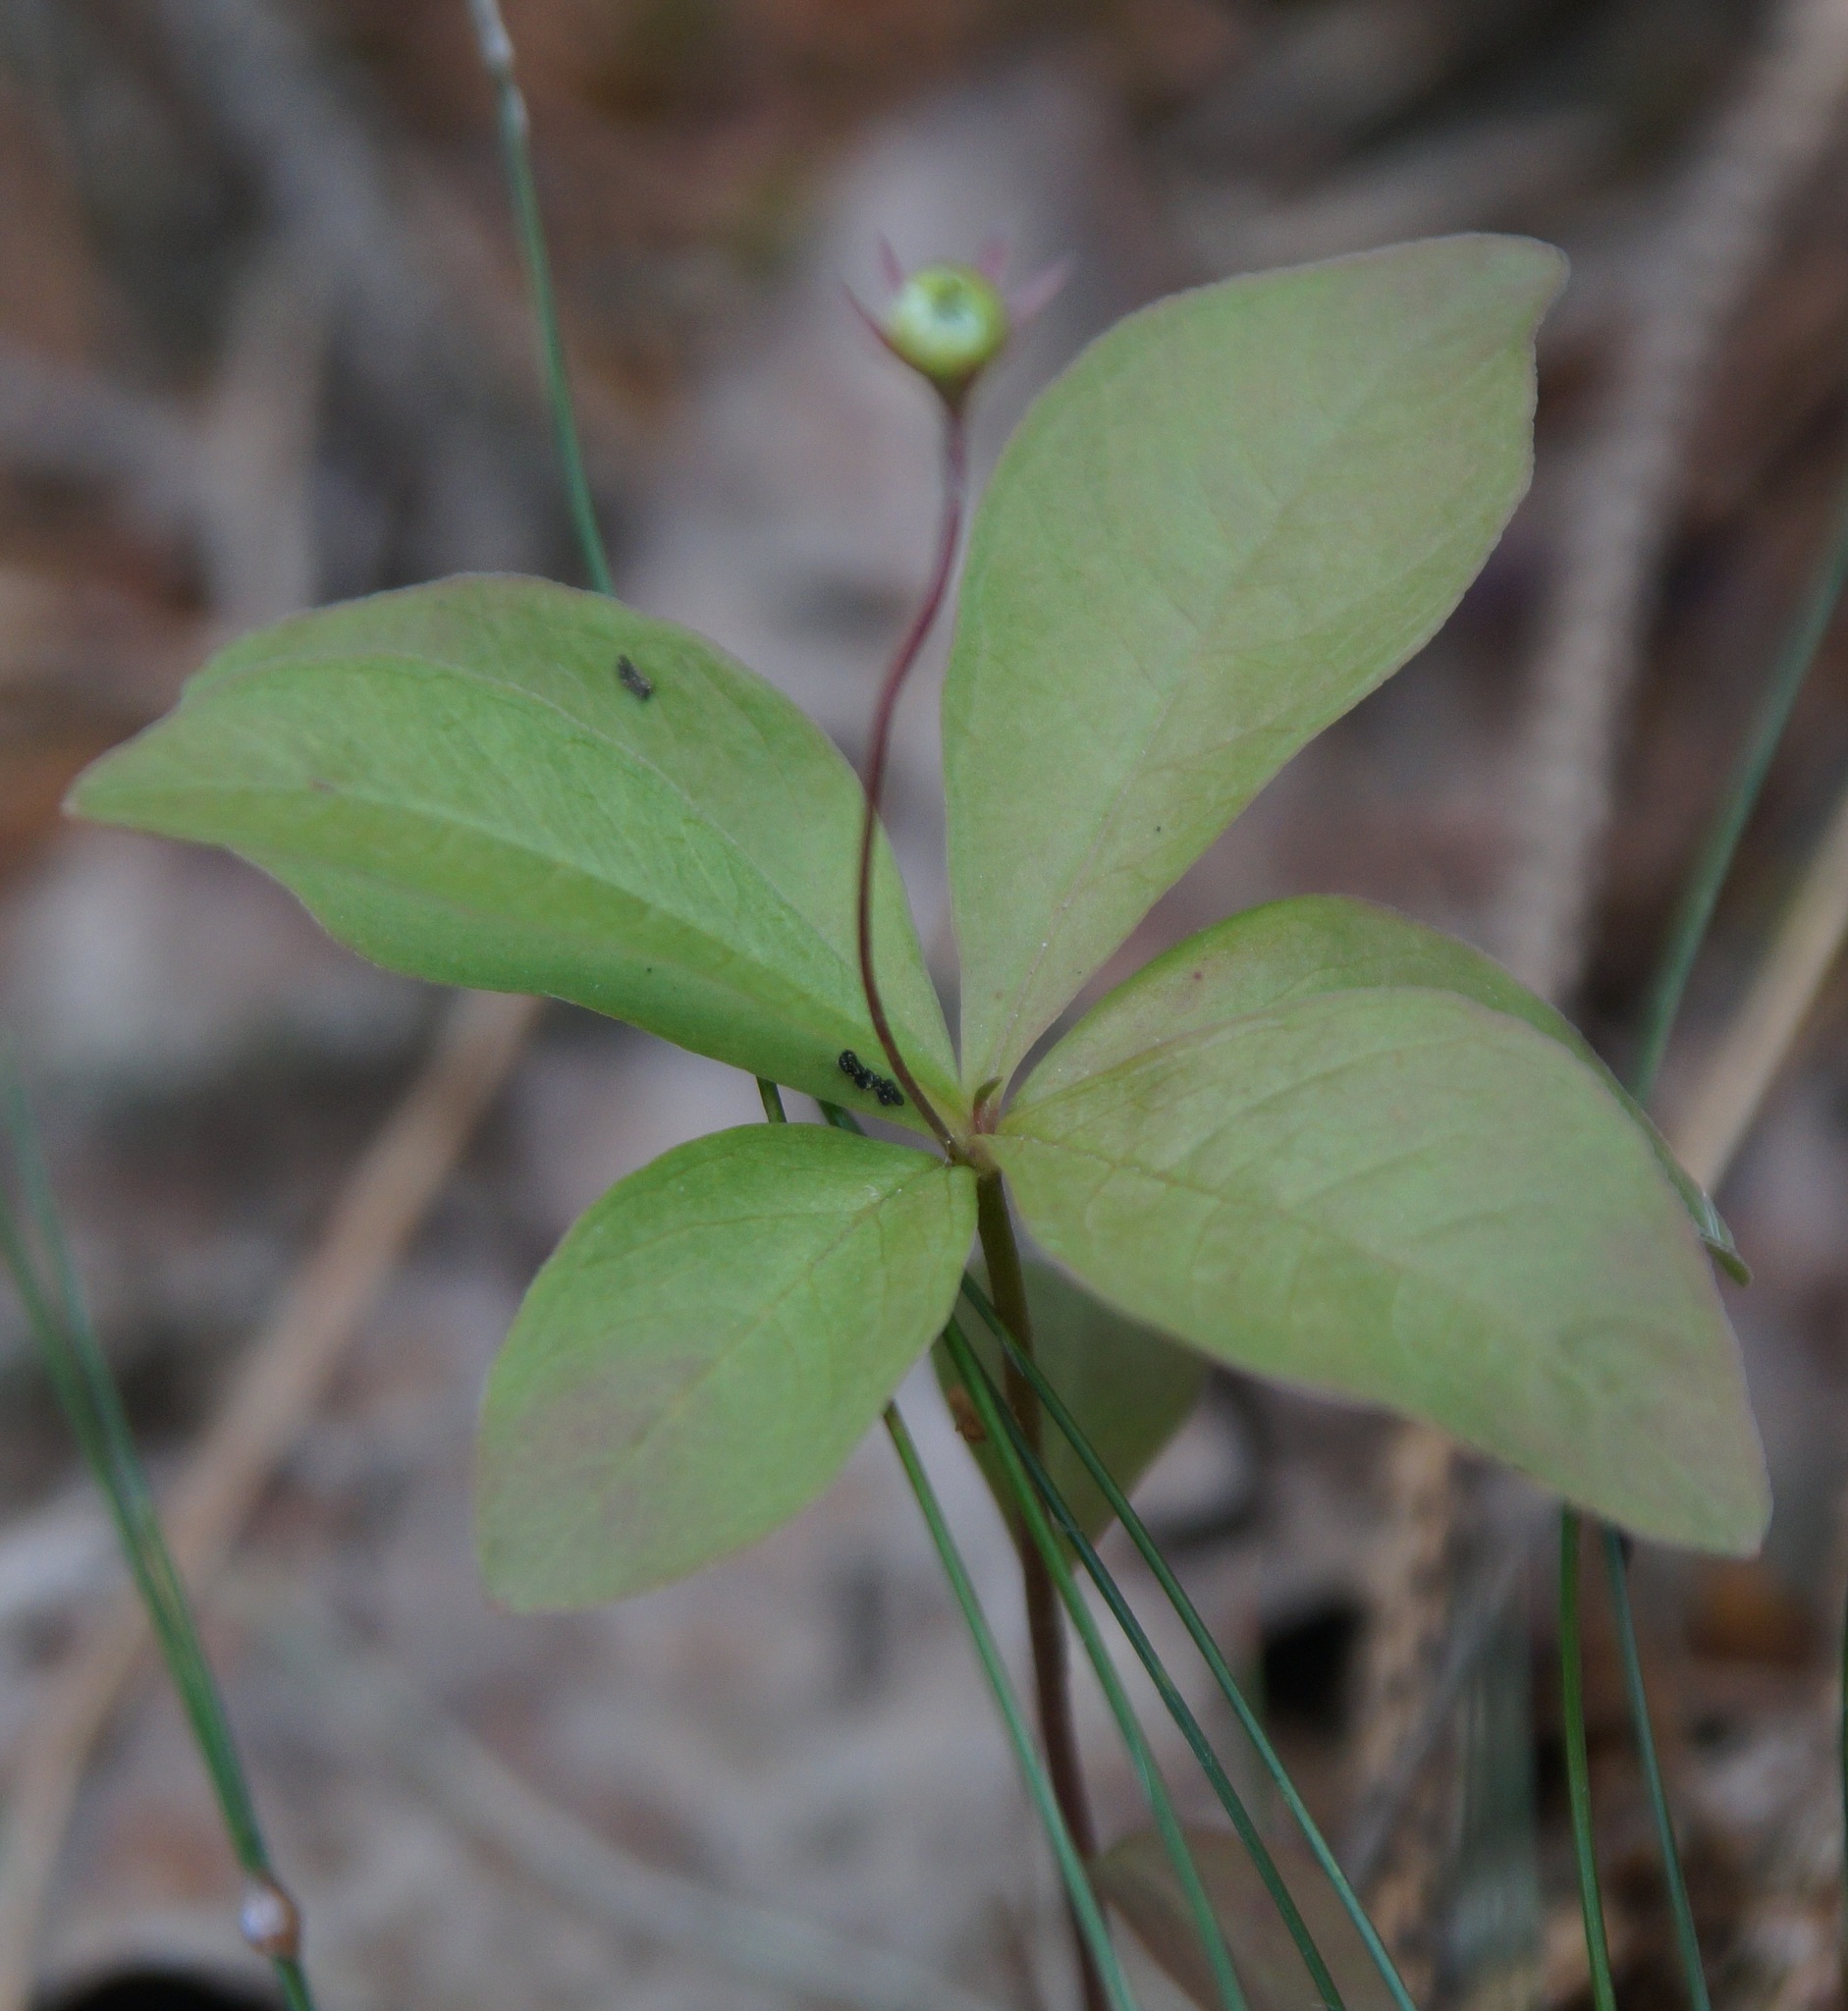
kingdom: Plantae
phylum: Tracheophyta
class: Magnoliopsida
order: Ericales
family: Primulaceae
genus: Lysimachia
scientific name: Lysimachia europaea
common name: Arctic starflower
